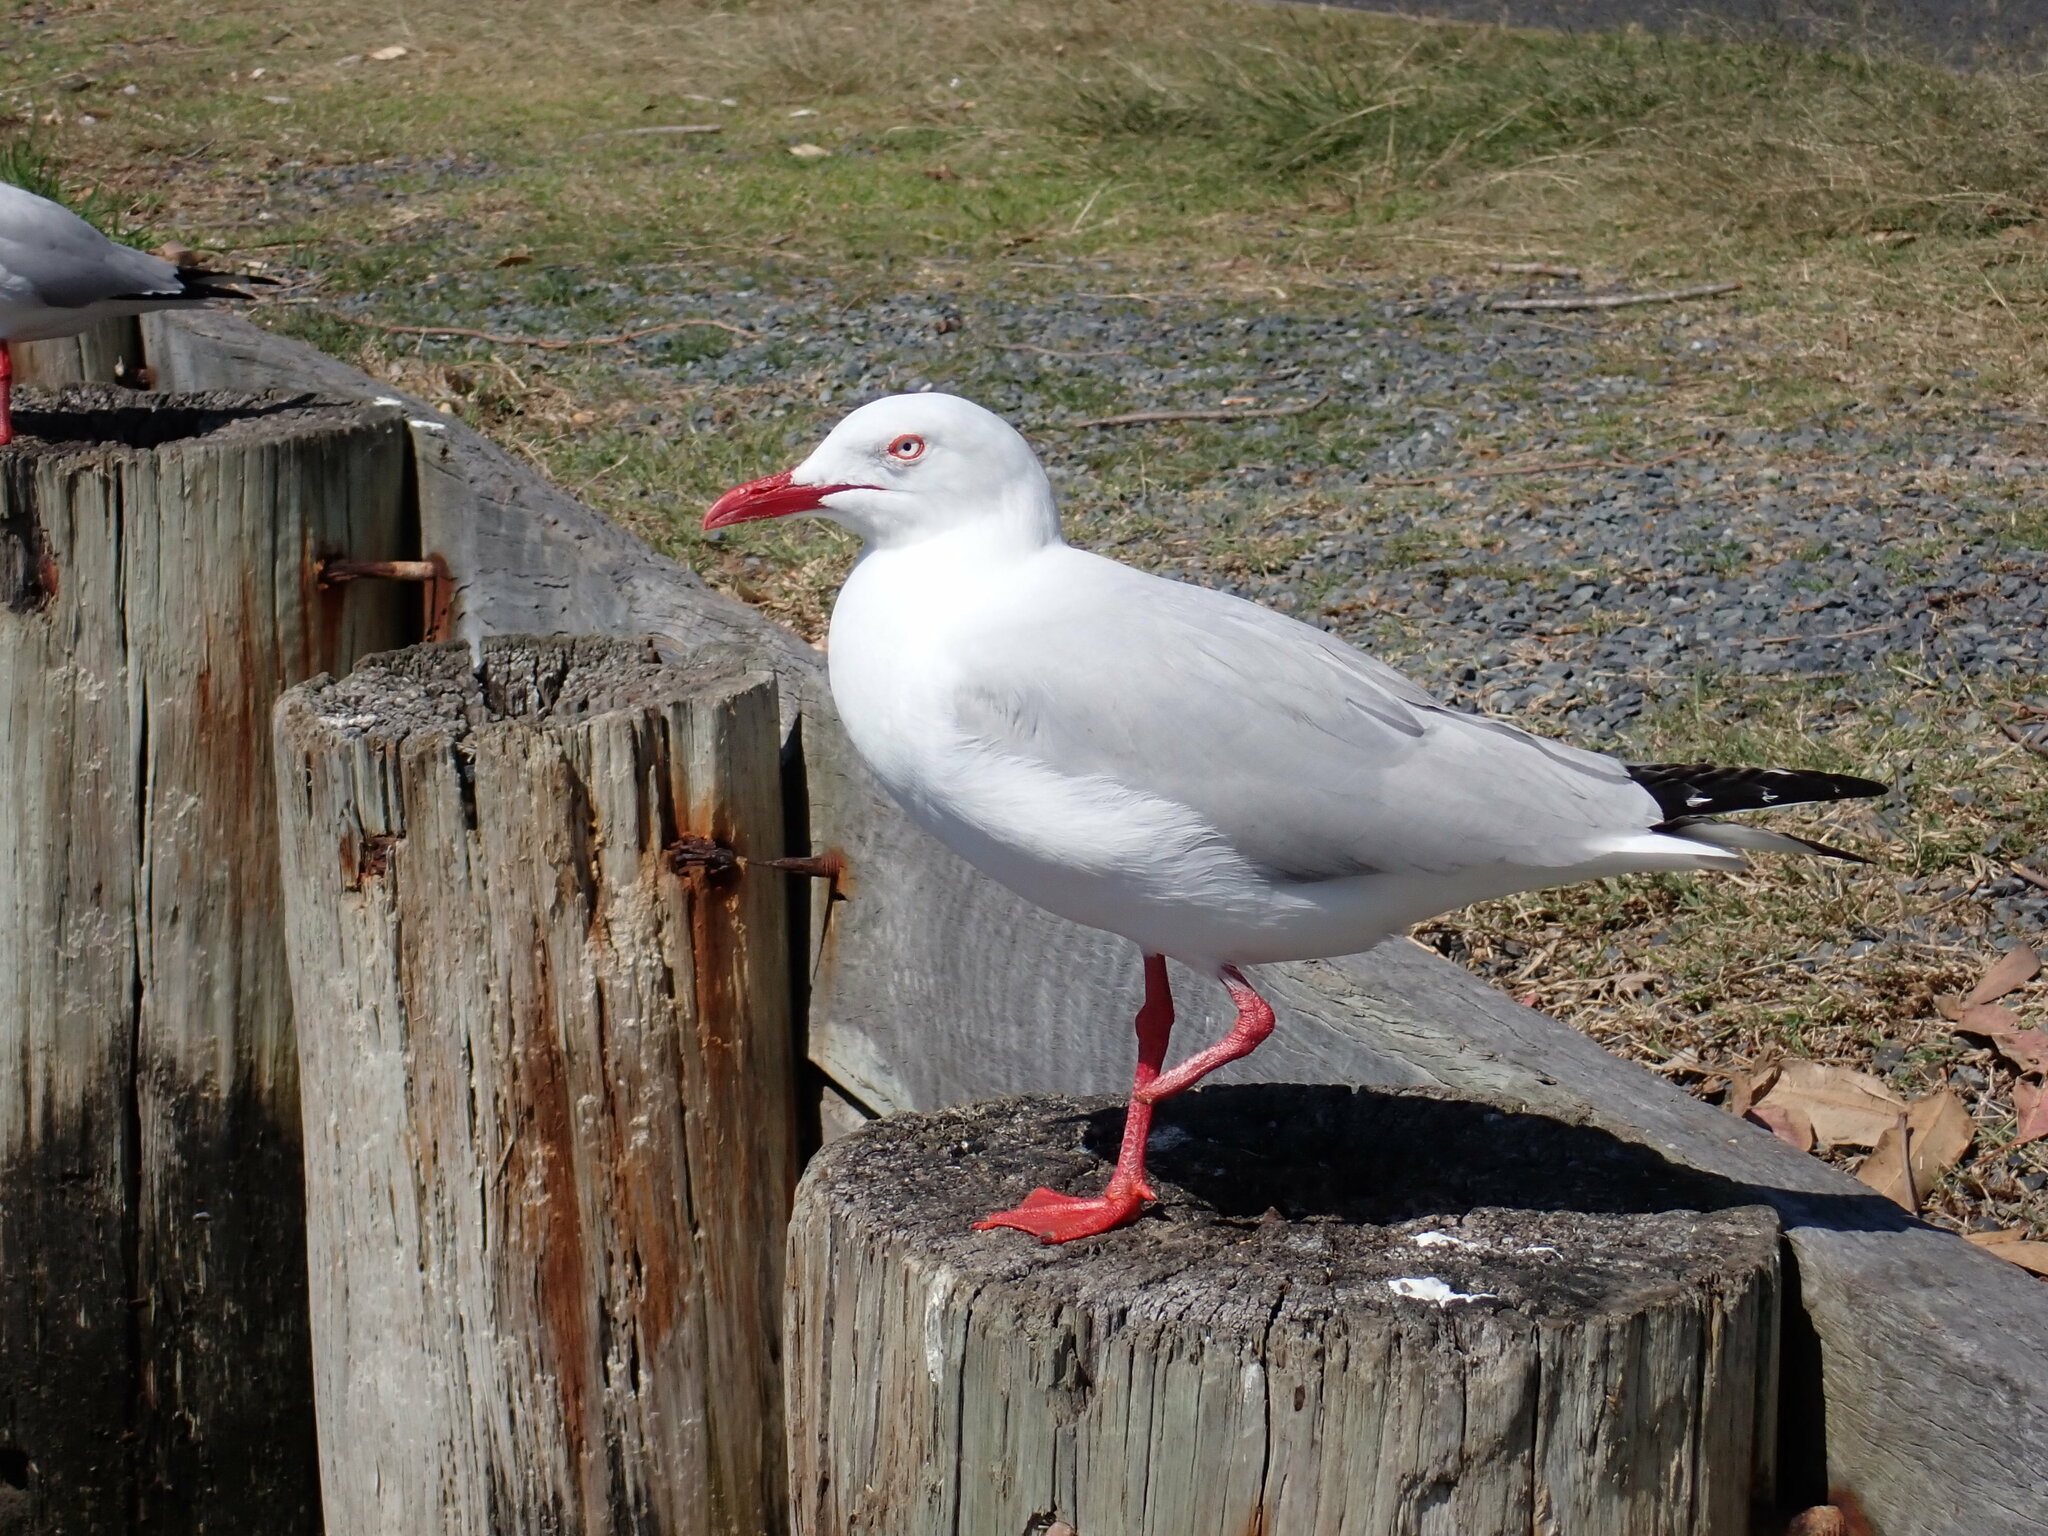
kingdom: Animalia
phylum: Chordata
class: Aves
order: Charadriiformes
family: Laridae
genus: Chroicocephalus
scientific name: Chroicocephalus novaehollandiae
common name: Silver gull
